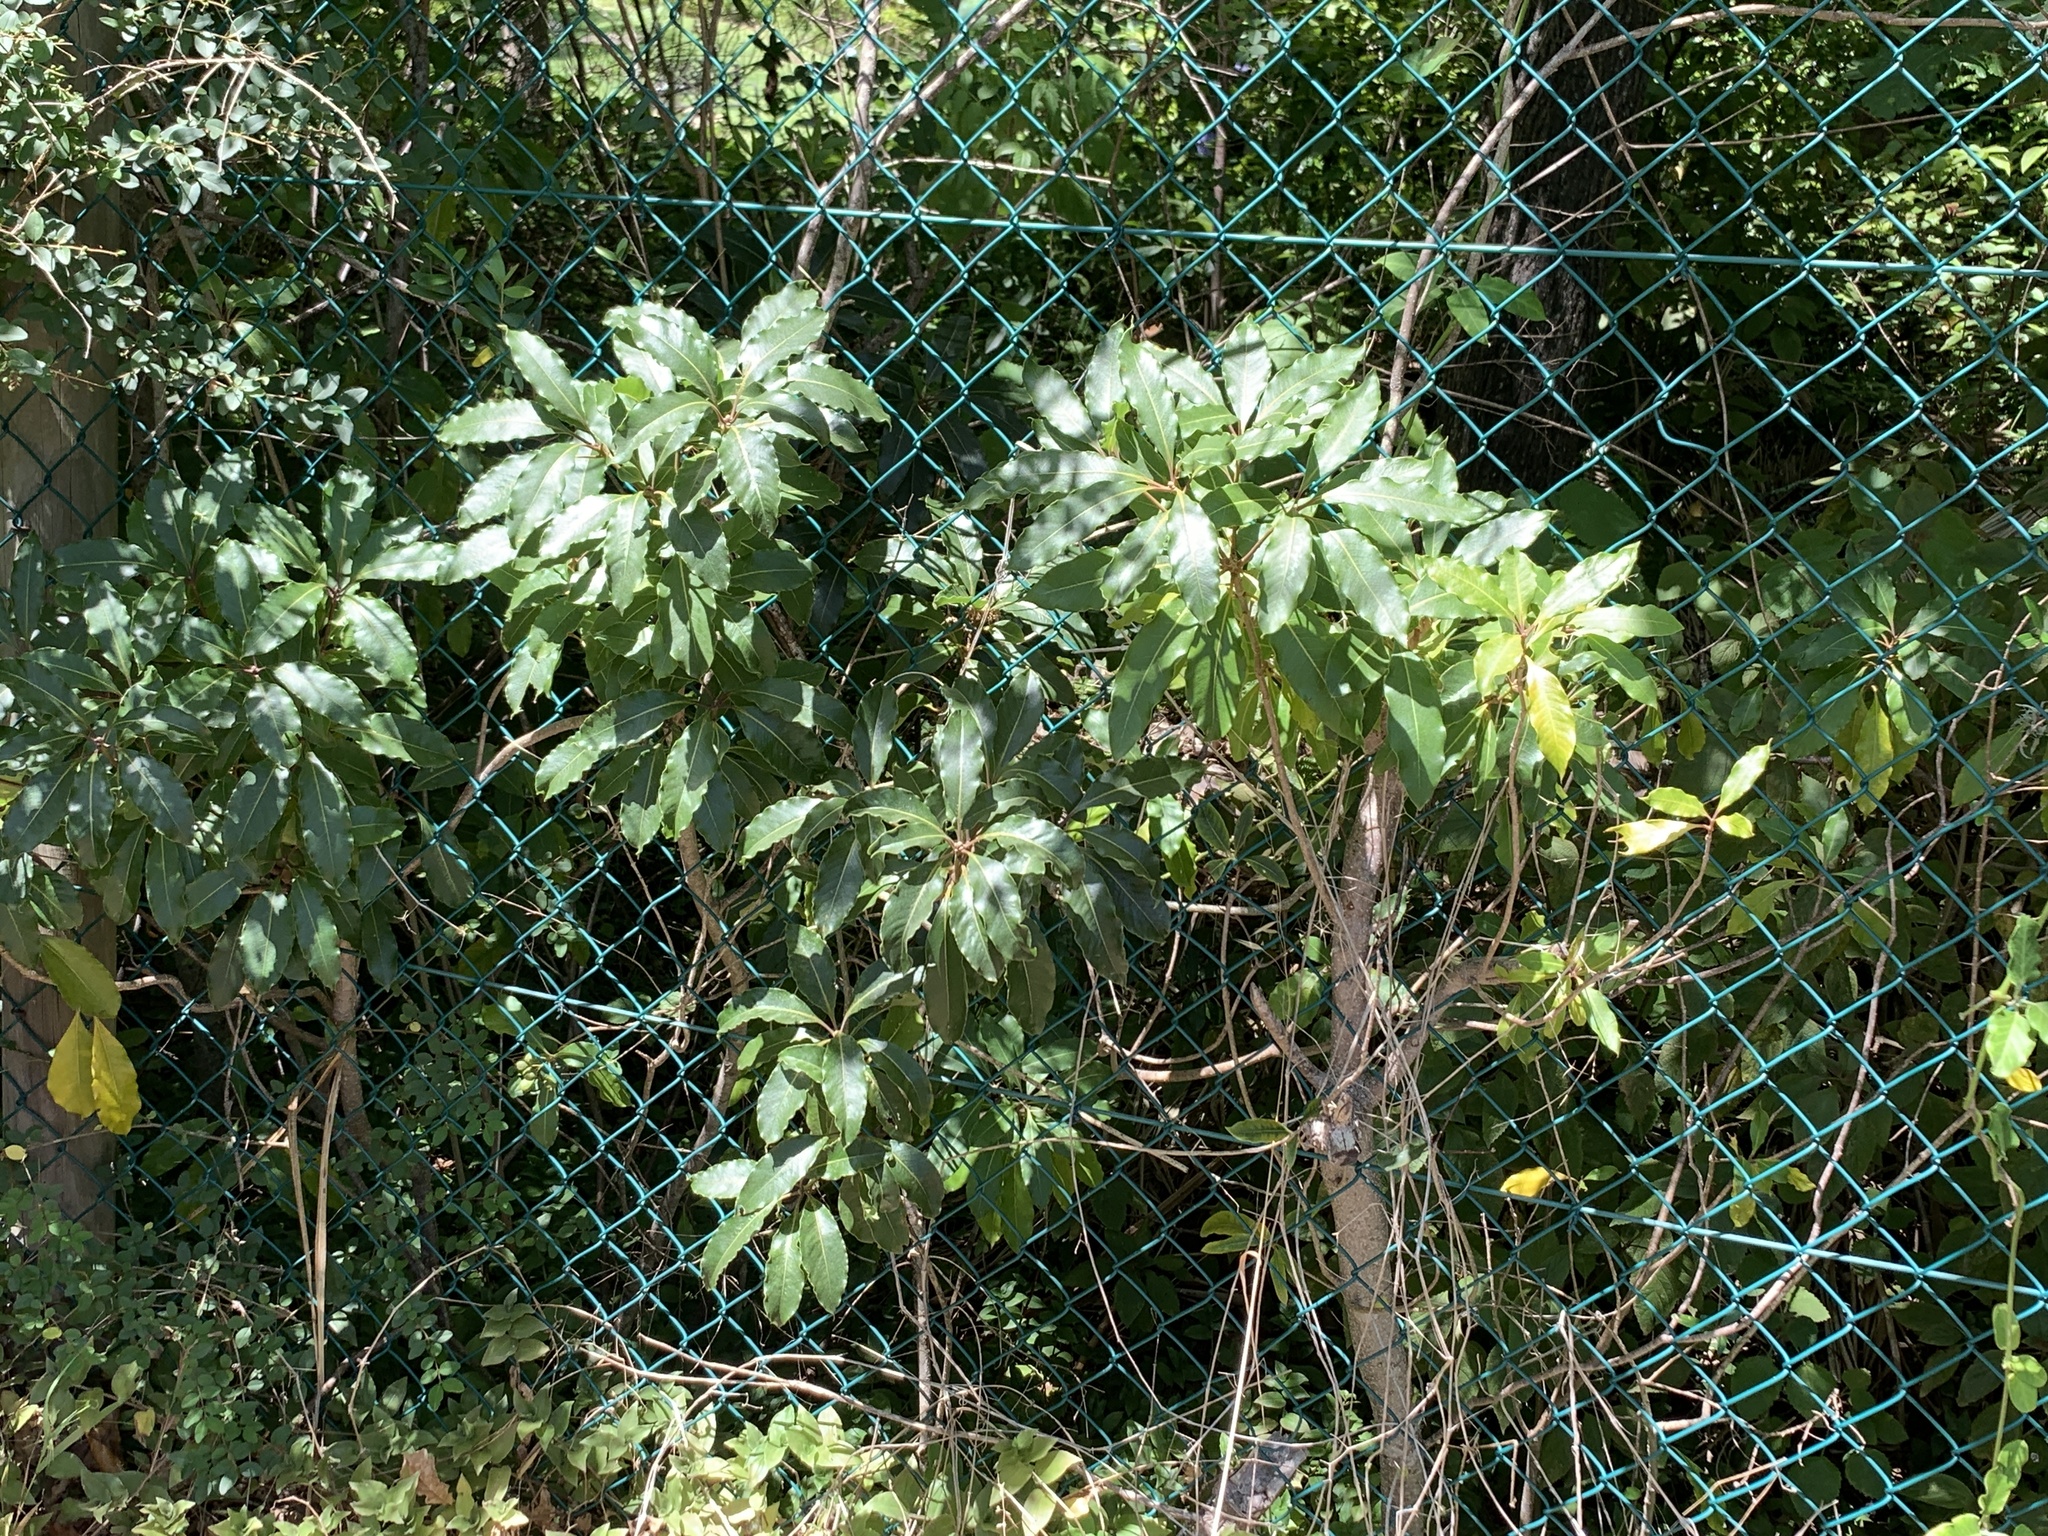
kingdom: Plantae
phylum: Tracheophyta
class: Magnoliopsida
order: Apiales
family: Pittosporaceae
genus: Pittosporum
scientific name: Pittosporum undulatum
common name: Australian cheesewood
